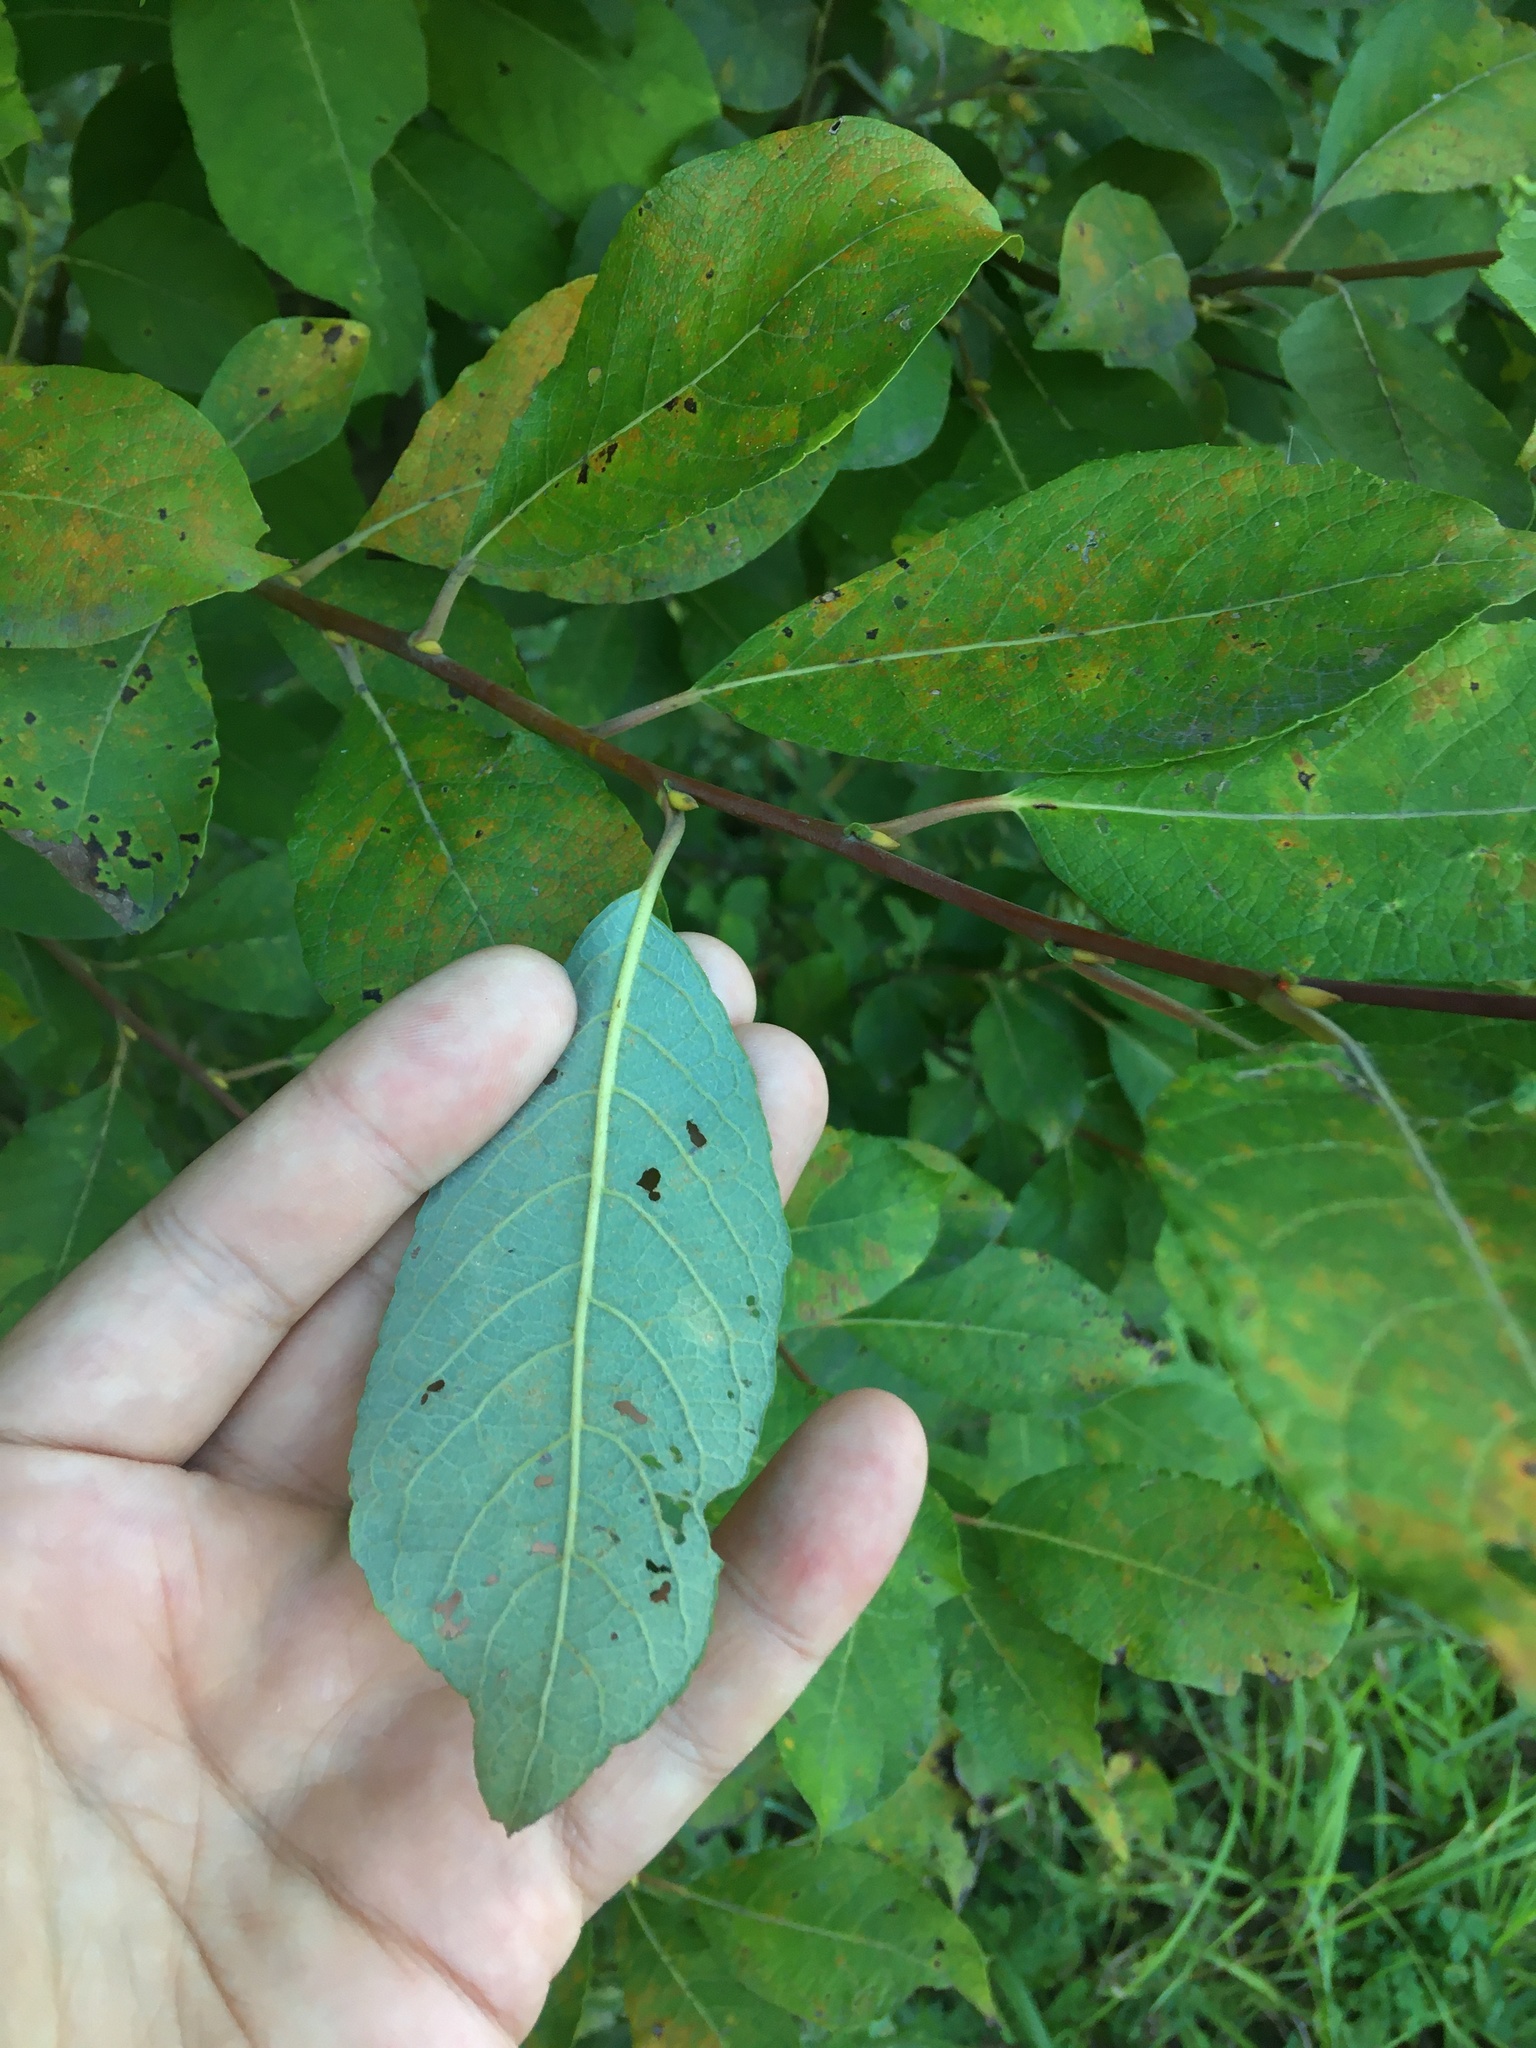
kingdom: Plantae
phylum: Tracheophyta
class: Magnoliopsida
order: Malpighiales
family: Salicaceae
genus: Salix
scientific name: Salix caprea
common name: Goat willow
